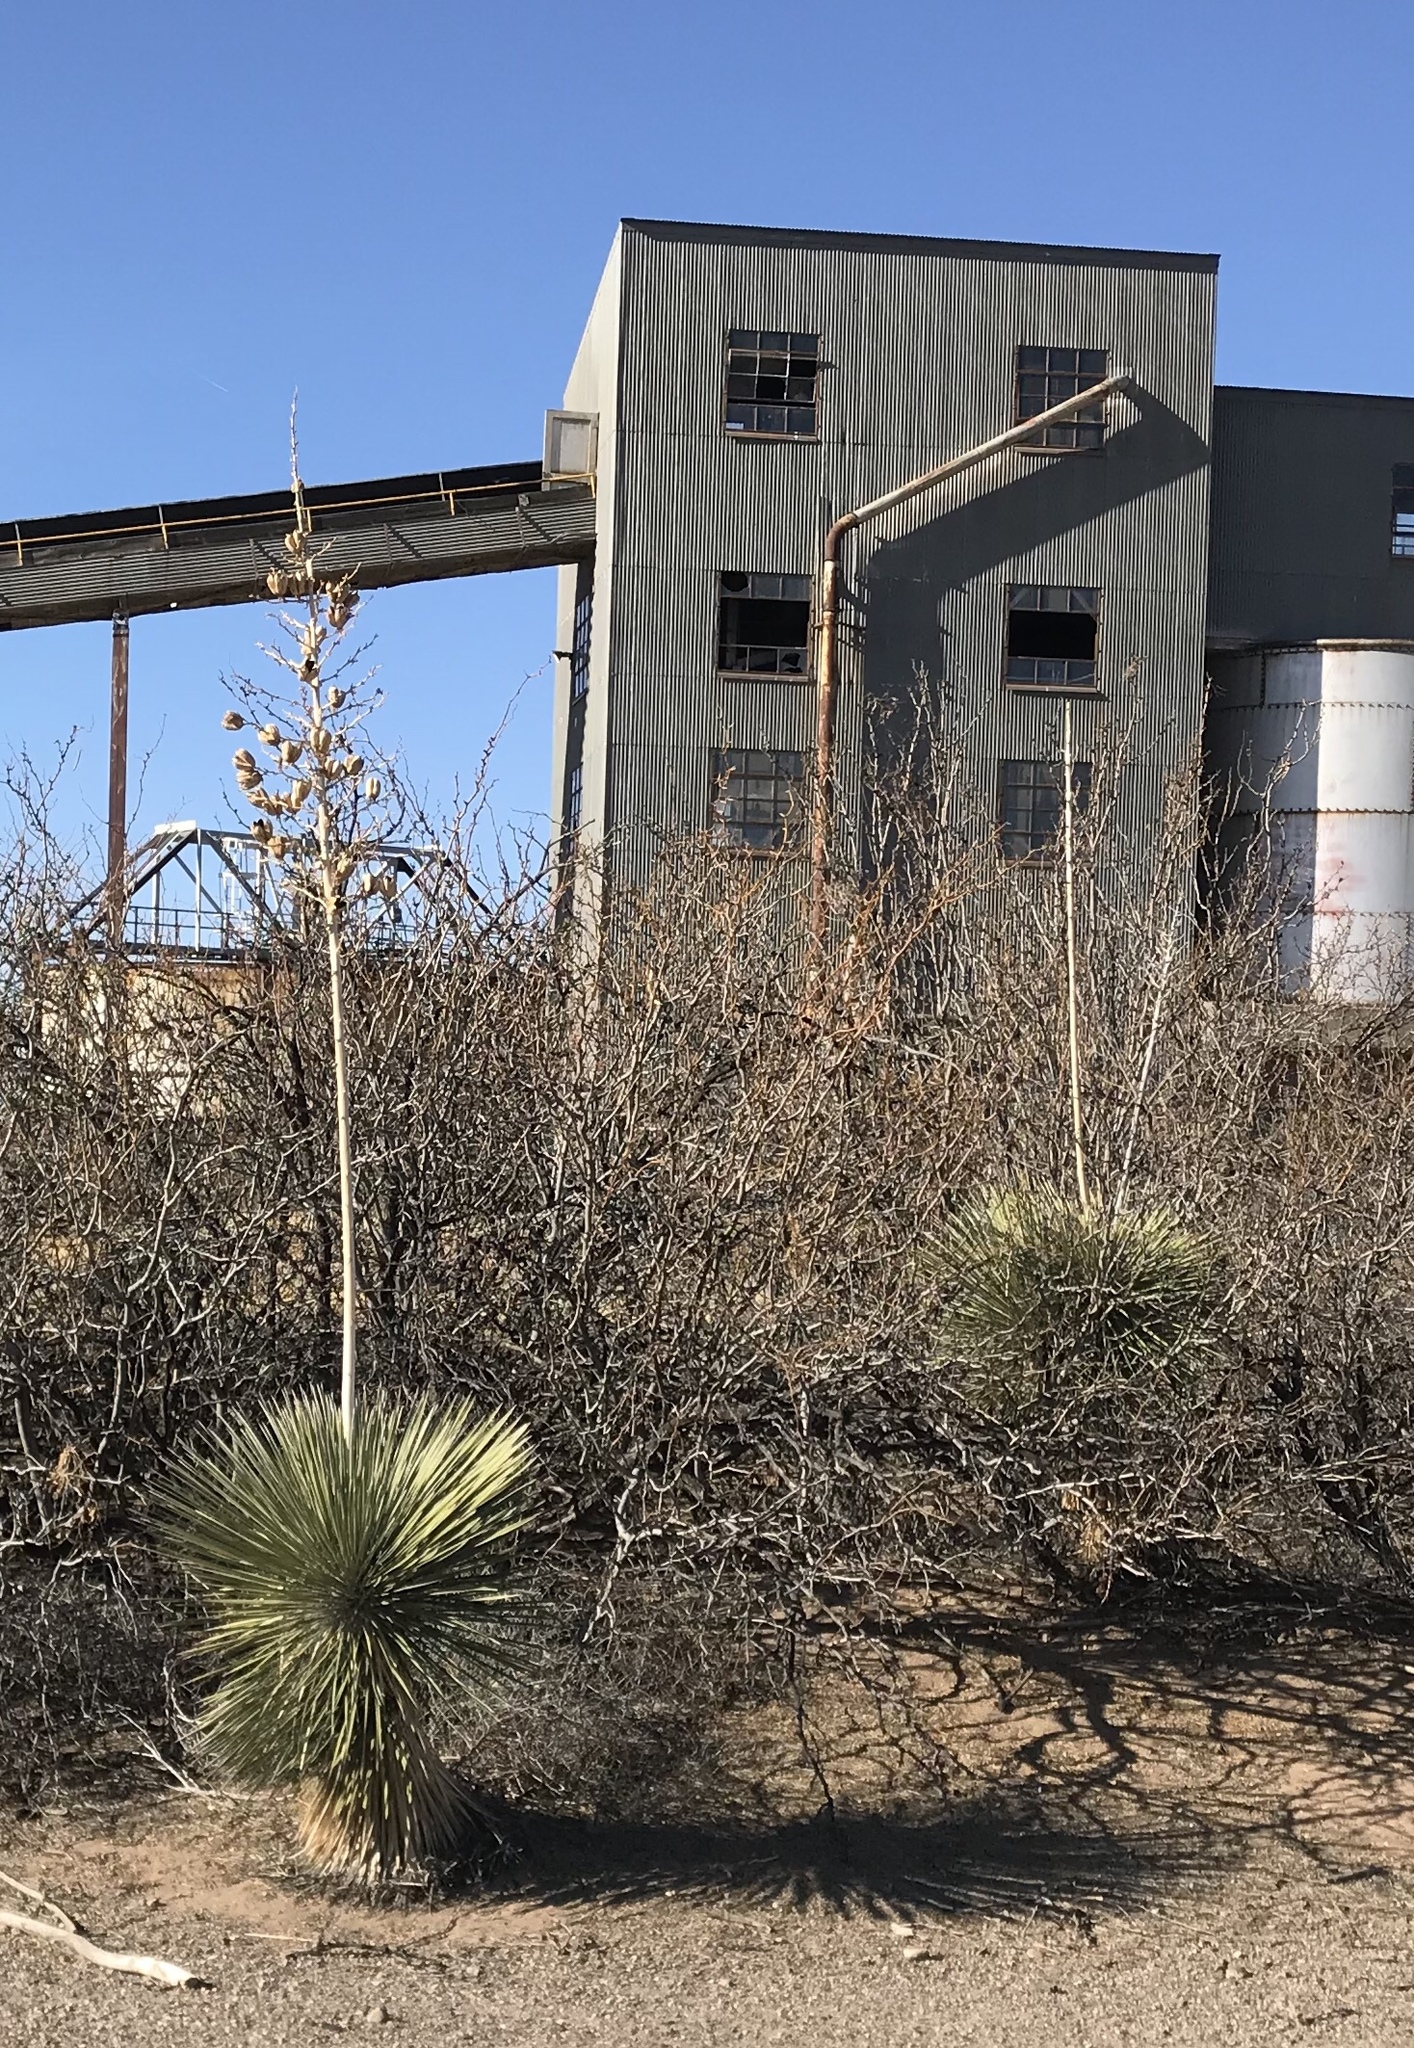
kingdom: Plantae
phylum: Tracheophyta
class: Liliopsida
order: Asparagales
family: Asparagaceae
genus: Yucca
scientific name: Yucca elata
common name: Palmella
